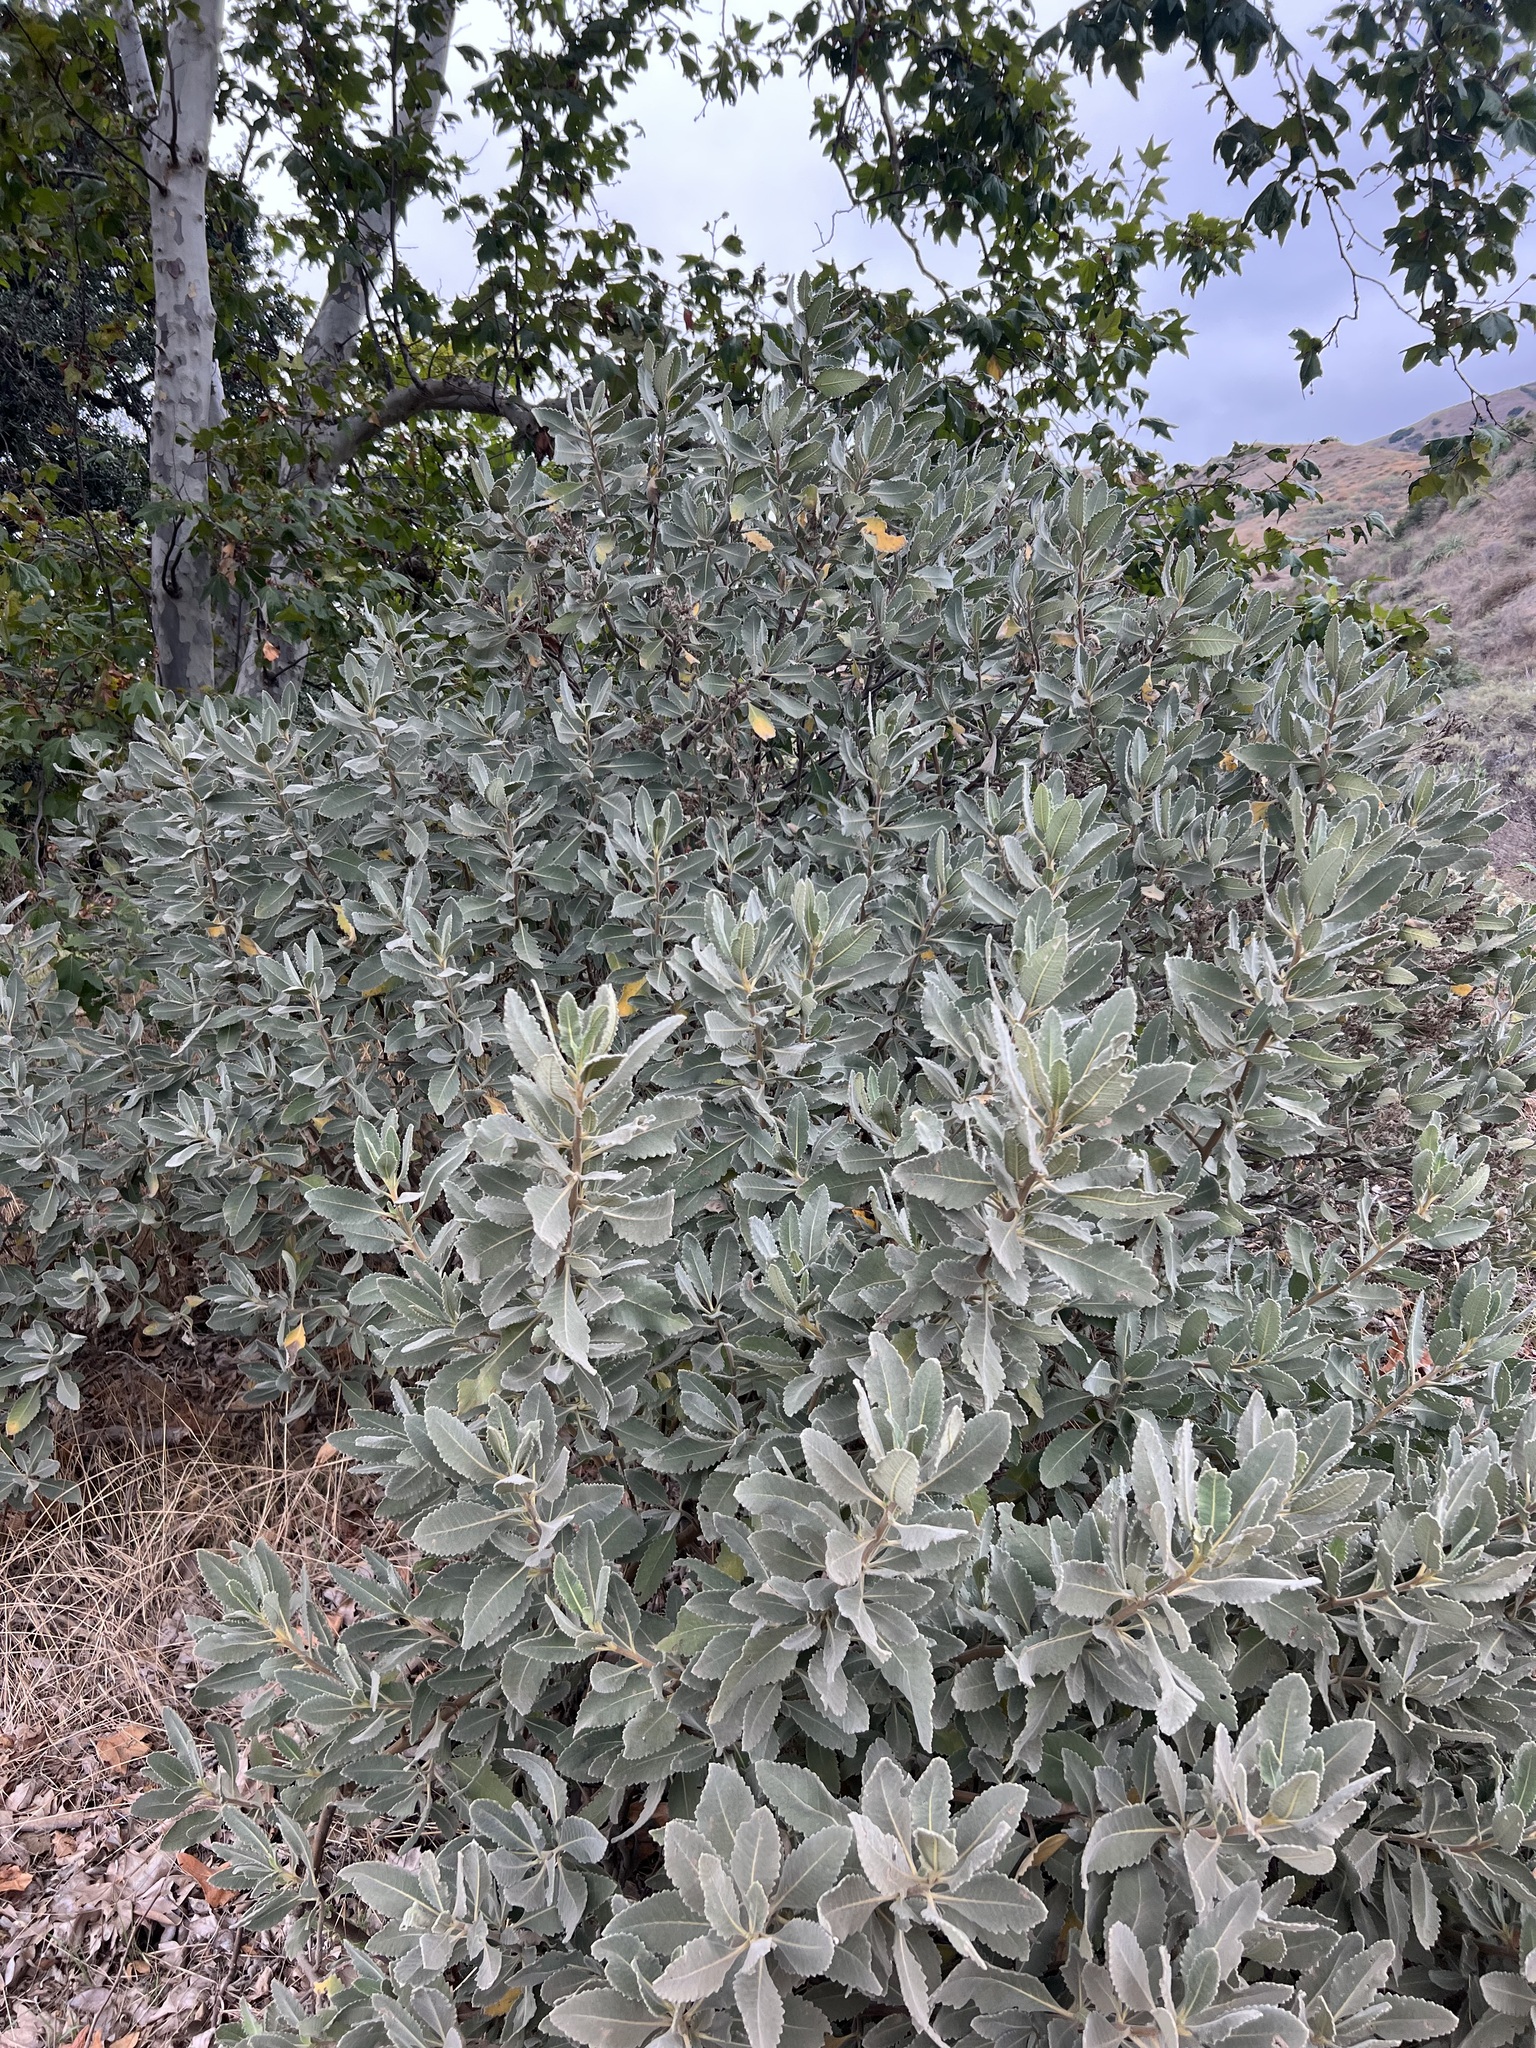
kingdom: Plantae
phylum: Tracheophyta
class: Magnoliopsida
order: Boraginales
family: Namaceae
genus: Eriodictyon
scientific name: Eriodictyon crassifolium
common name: Thick-leaf yerba-santa
